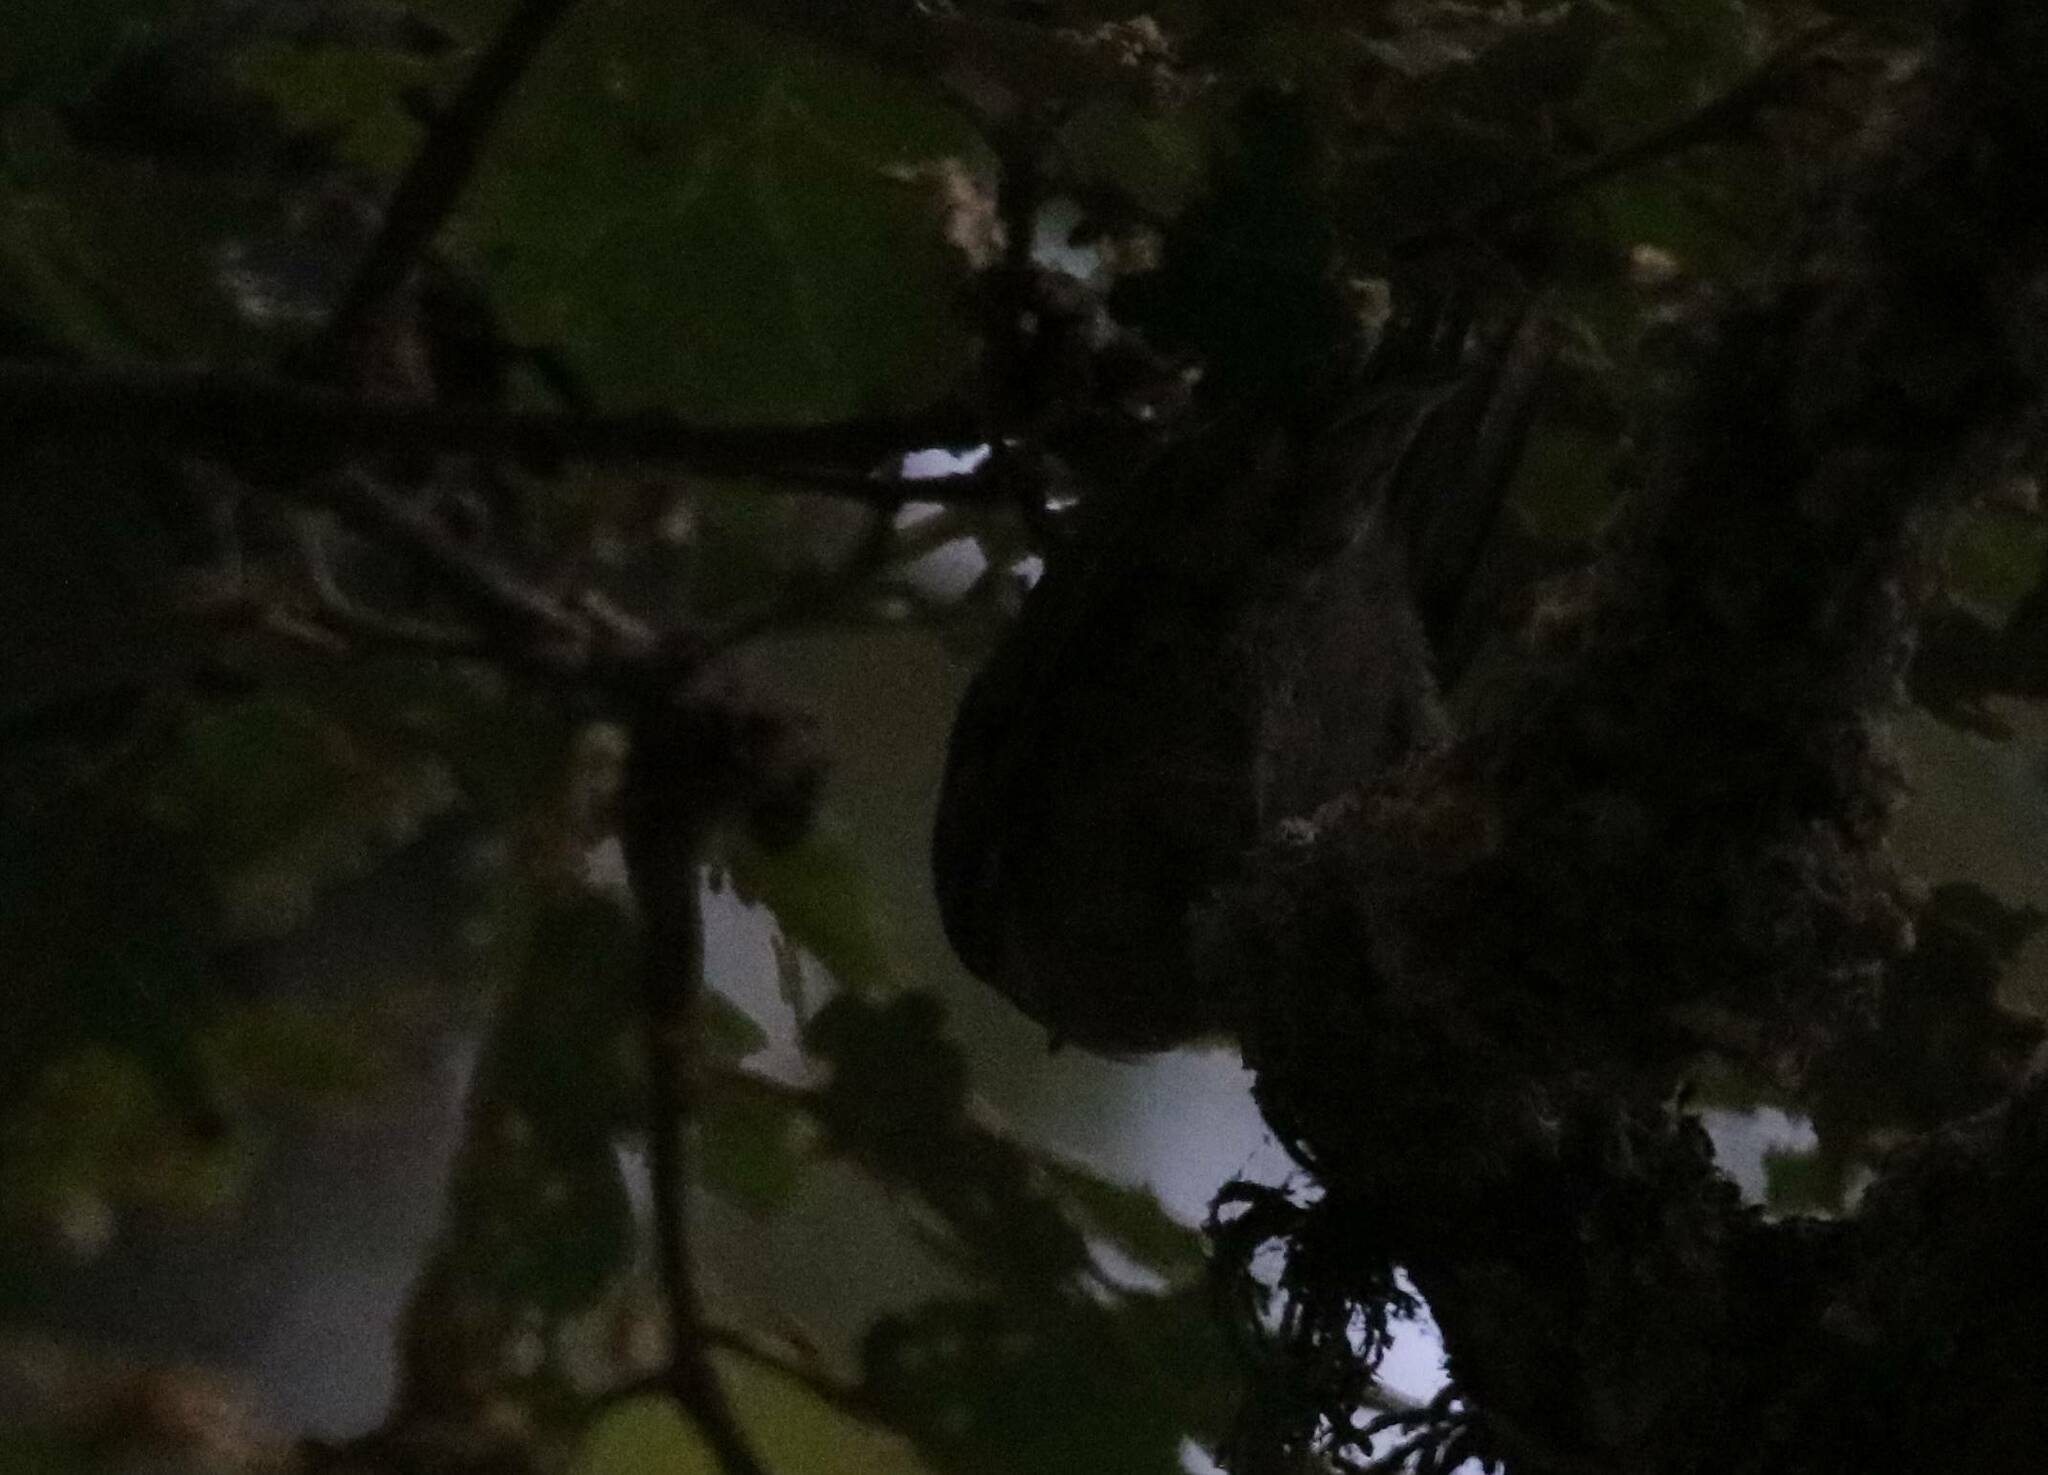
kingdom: Animalia
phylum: Chordata
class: Aves
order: Passeriformes
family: Sittidae
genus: Sitta
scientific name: Sitta ledanti
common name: Algerian nuthatch
